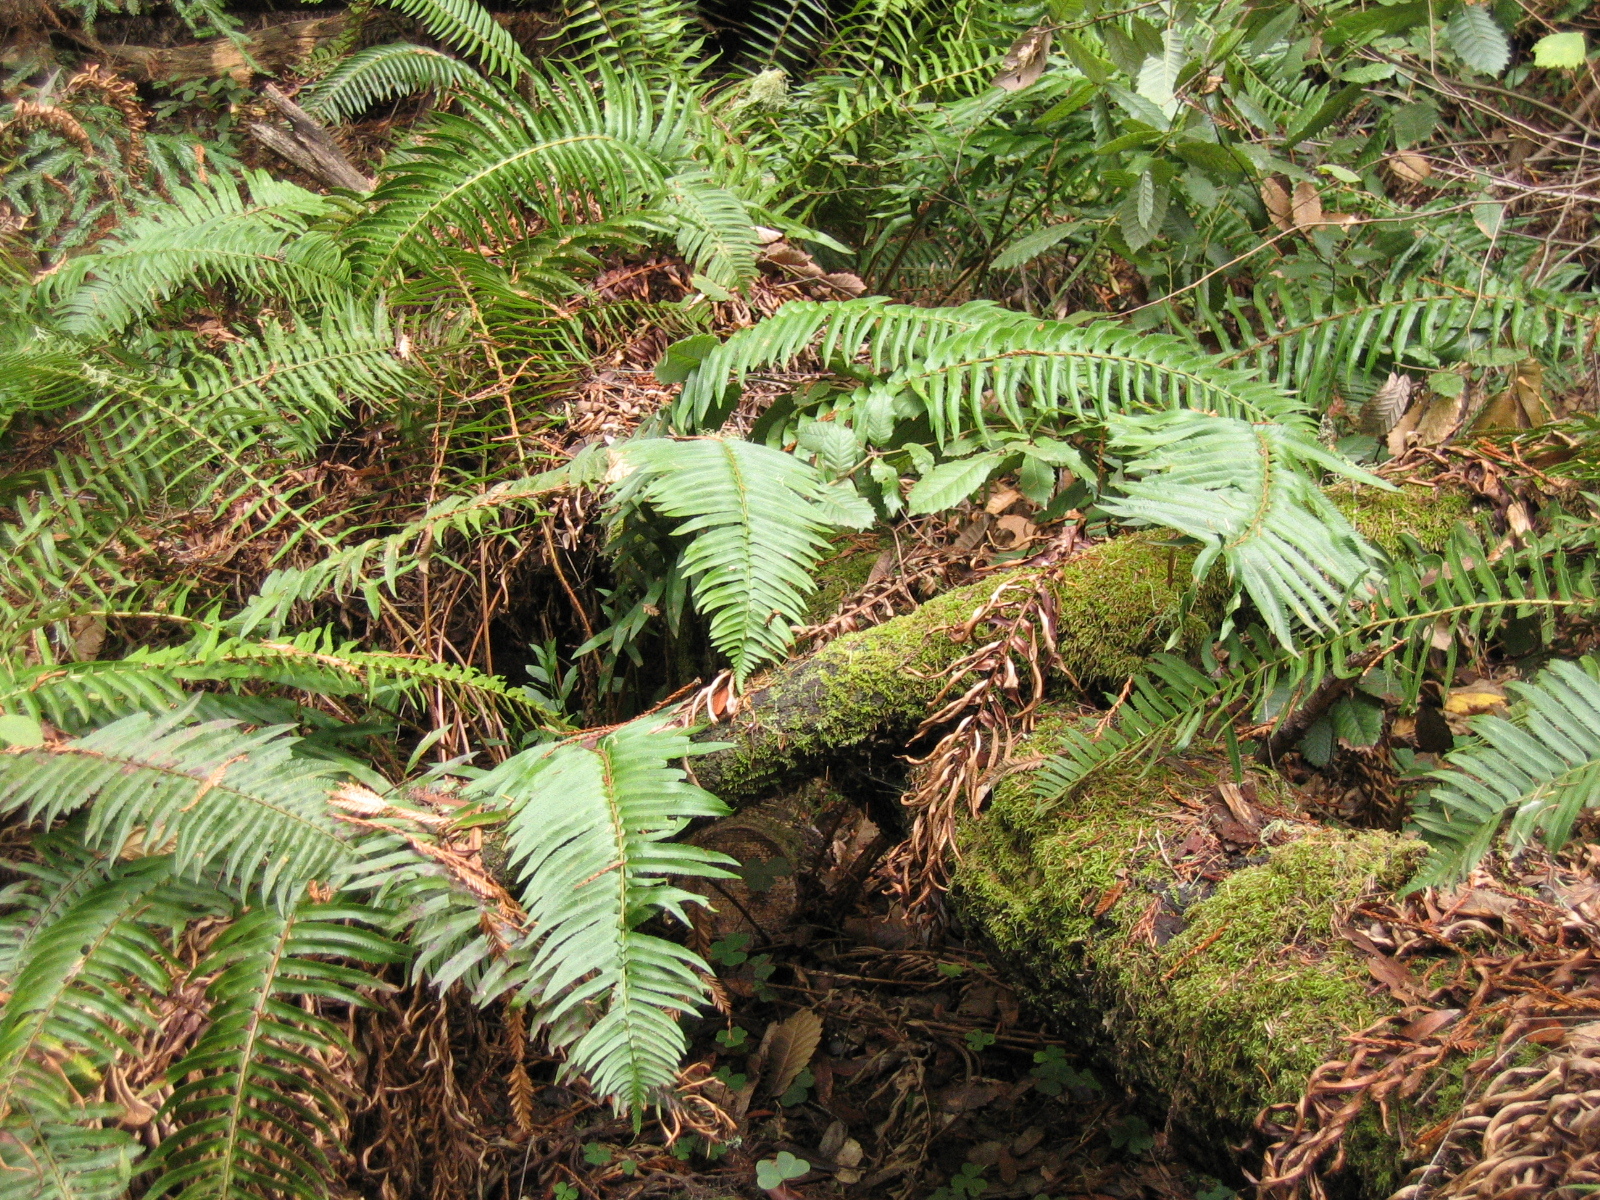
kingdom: Plantae
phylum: Tracheophyta
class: Polypodiopsida
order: Polypodiales
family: Dryopteridaceae
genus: Polystichum
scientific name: Polystichum munitum
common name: Western sword-fern
